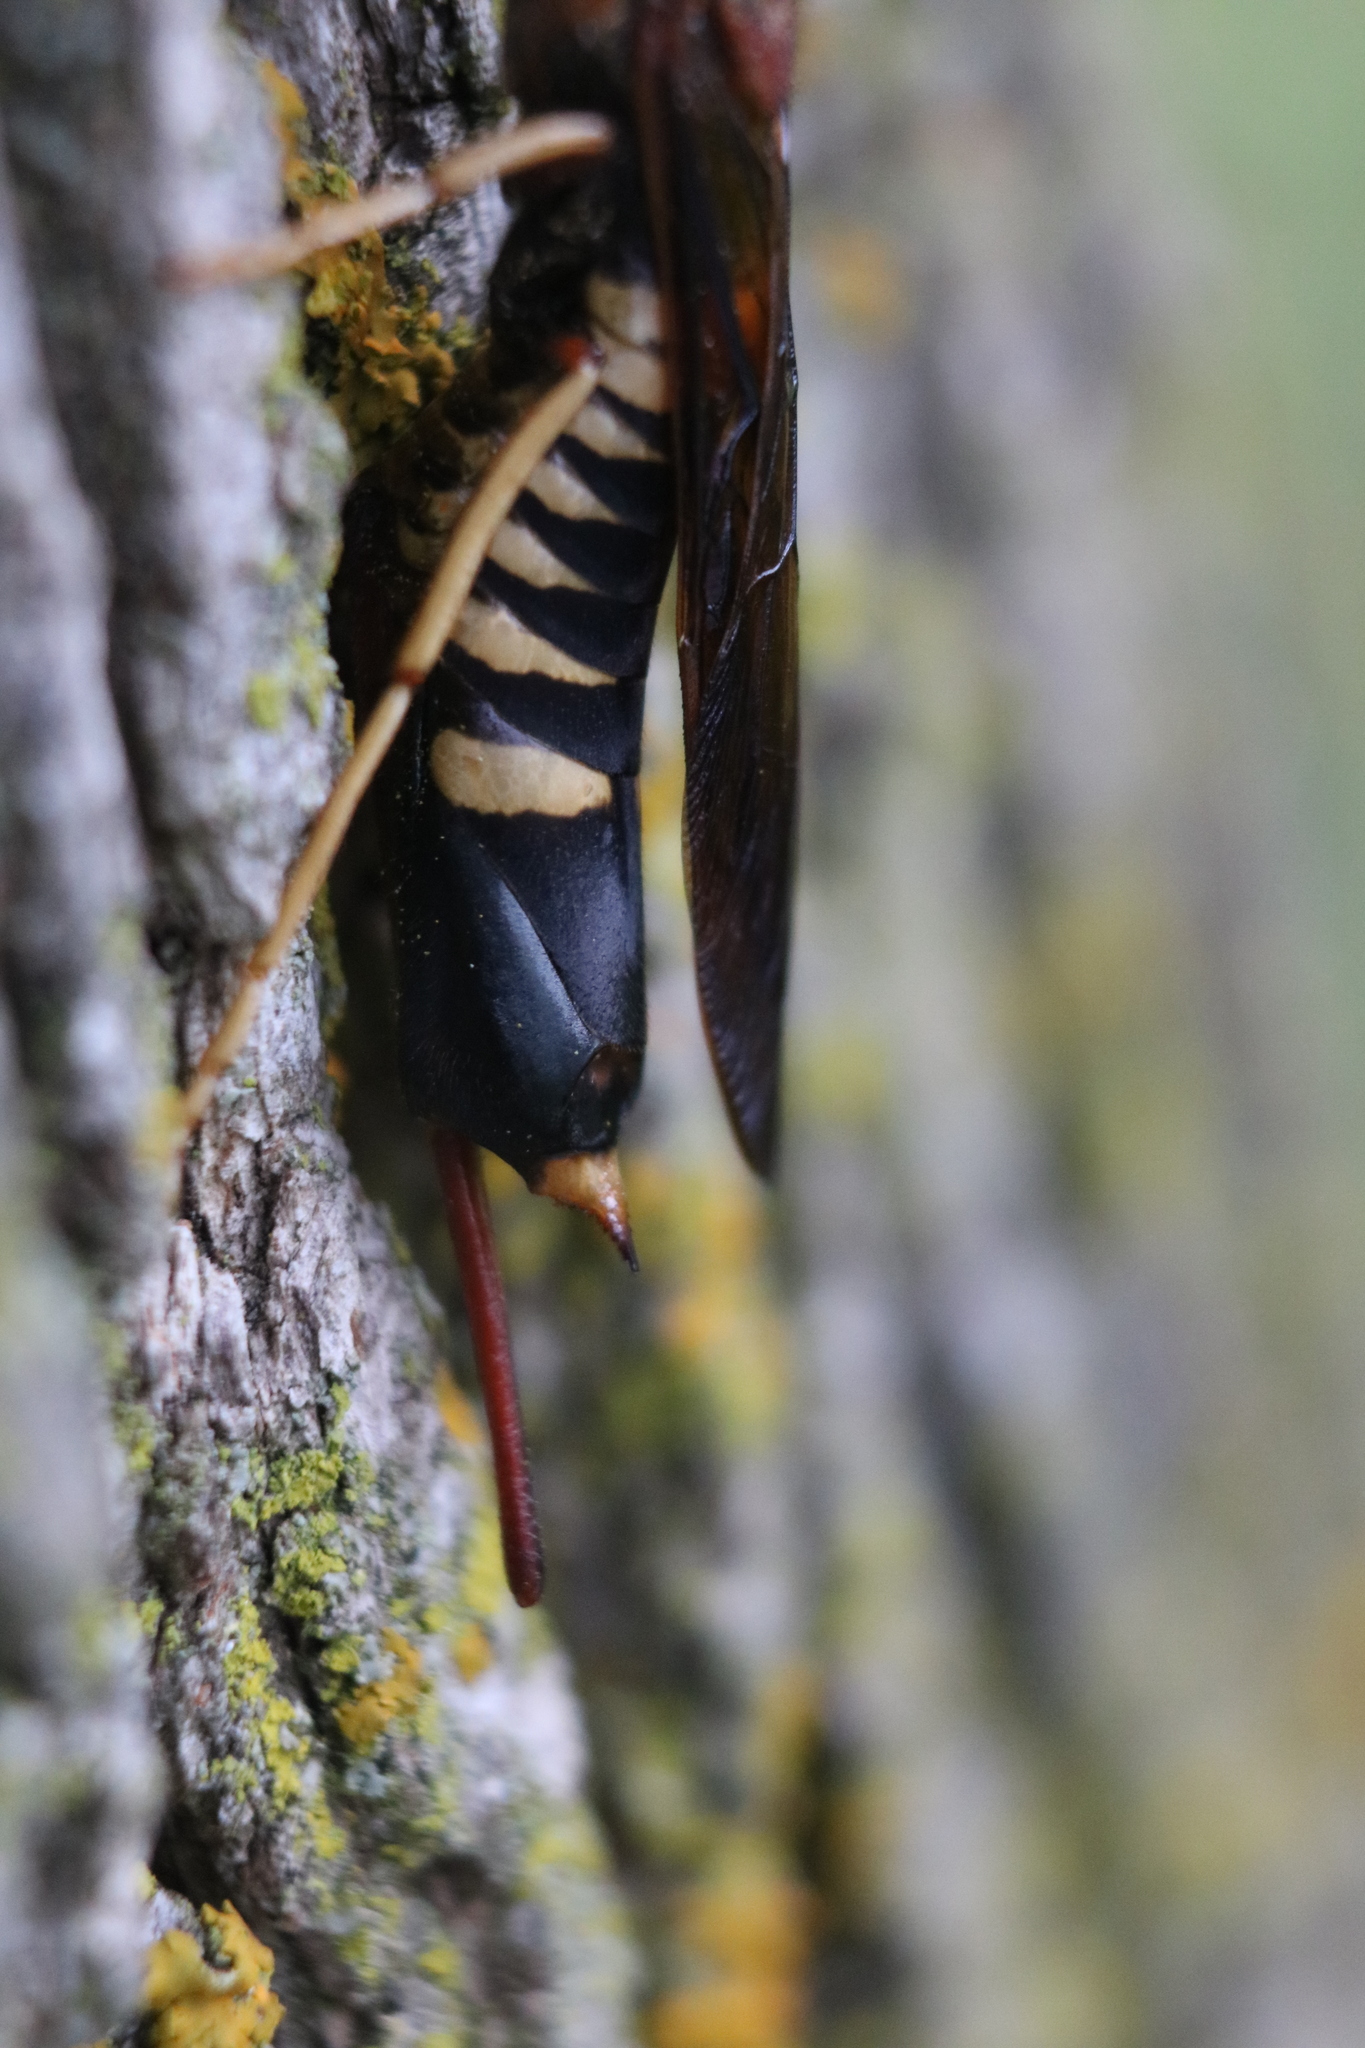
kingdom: Animalia
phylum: Arthropoda
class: Insecta
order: Hymenoptera
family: Siricidae
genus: Tremex
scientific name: Tremex columba
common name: Wasp
